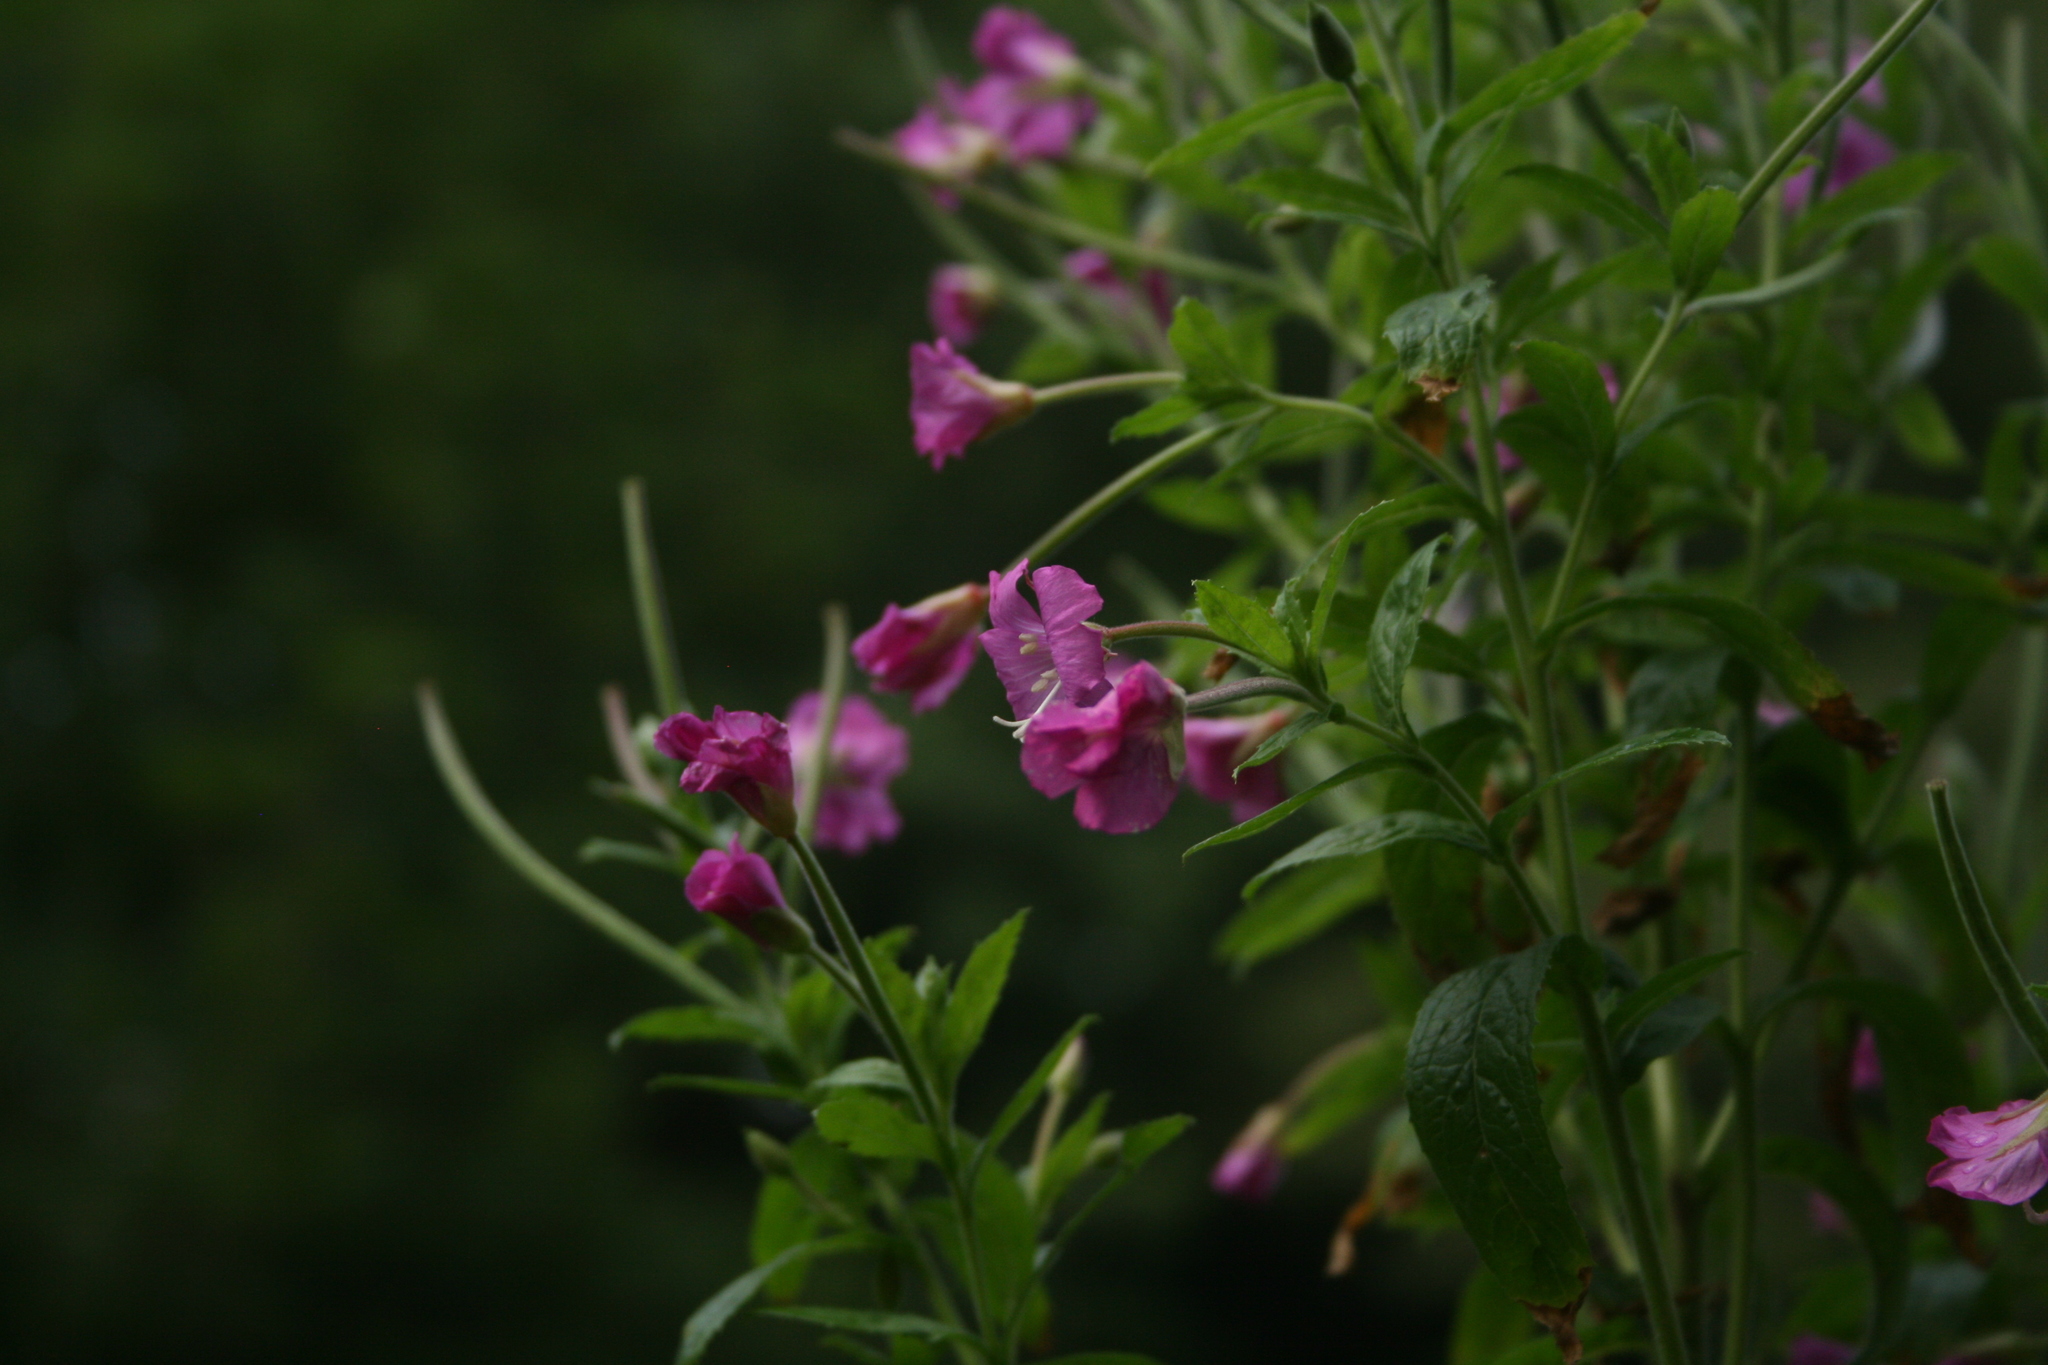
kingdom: Plantae
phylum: Tracheophyta
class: Magnoliopsida
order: Myrtales
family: Onagraceae
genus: Epilobium
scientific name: Epilobium hirsutum
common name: Great willowherb
